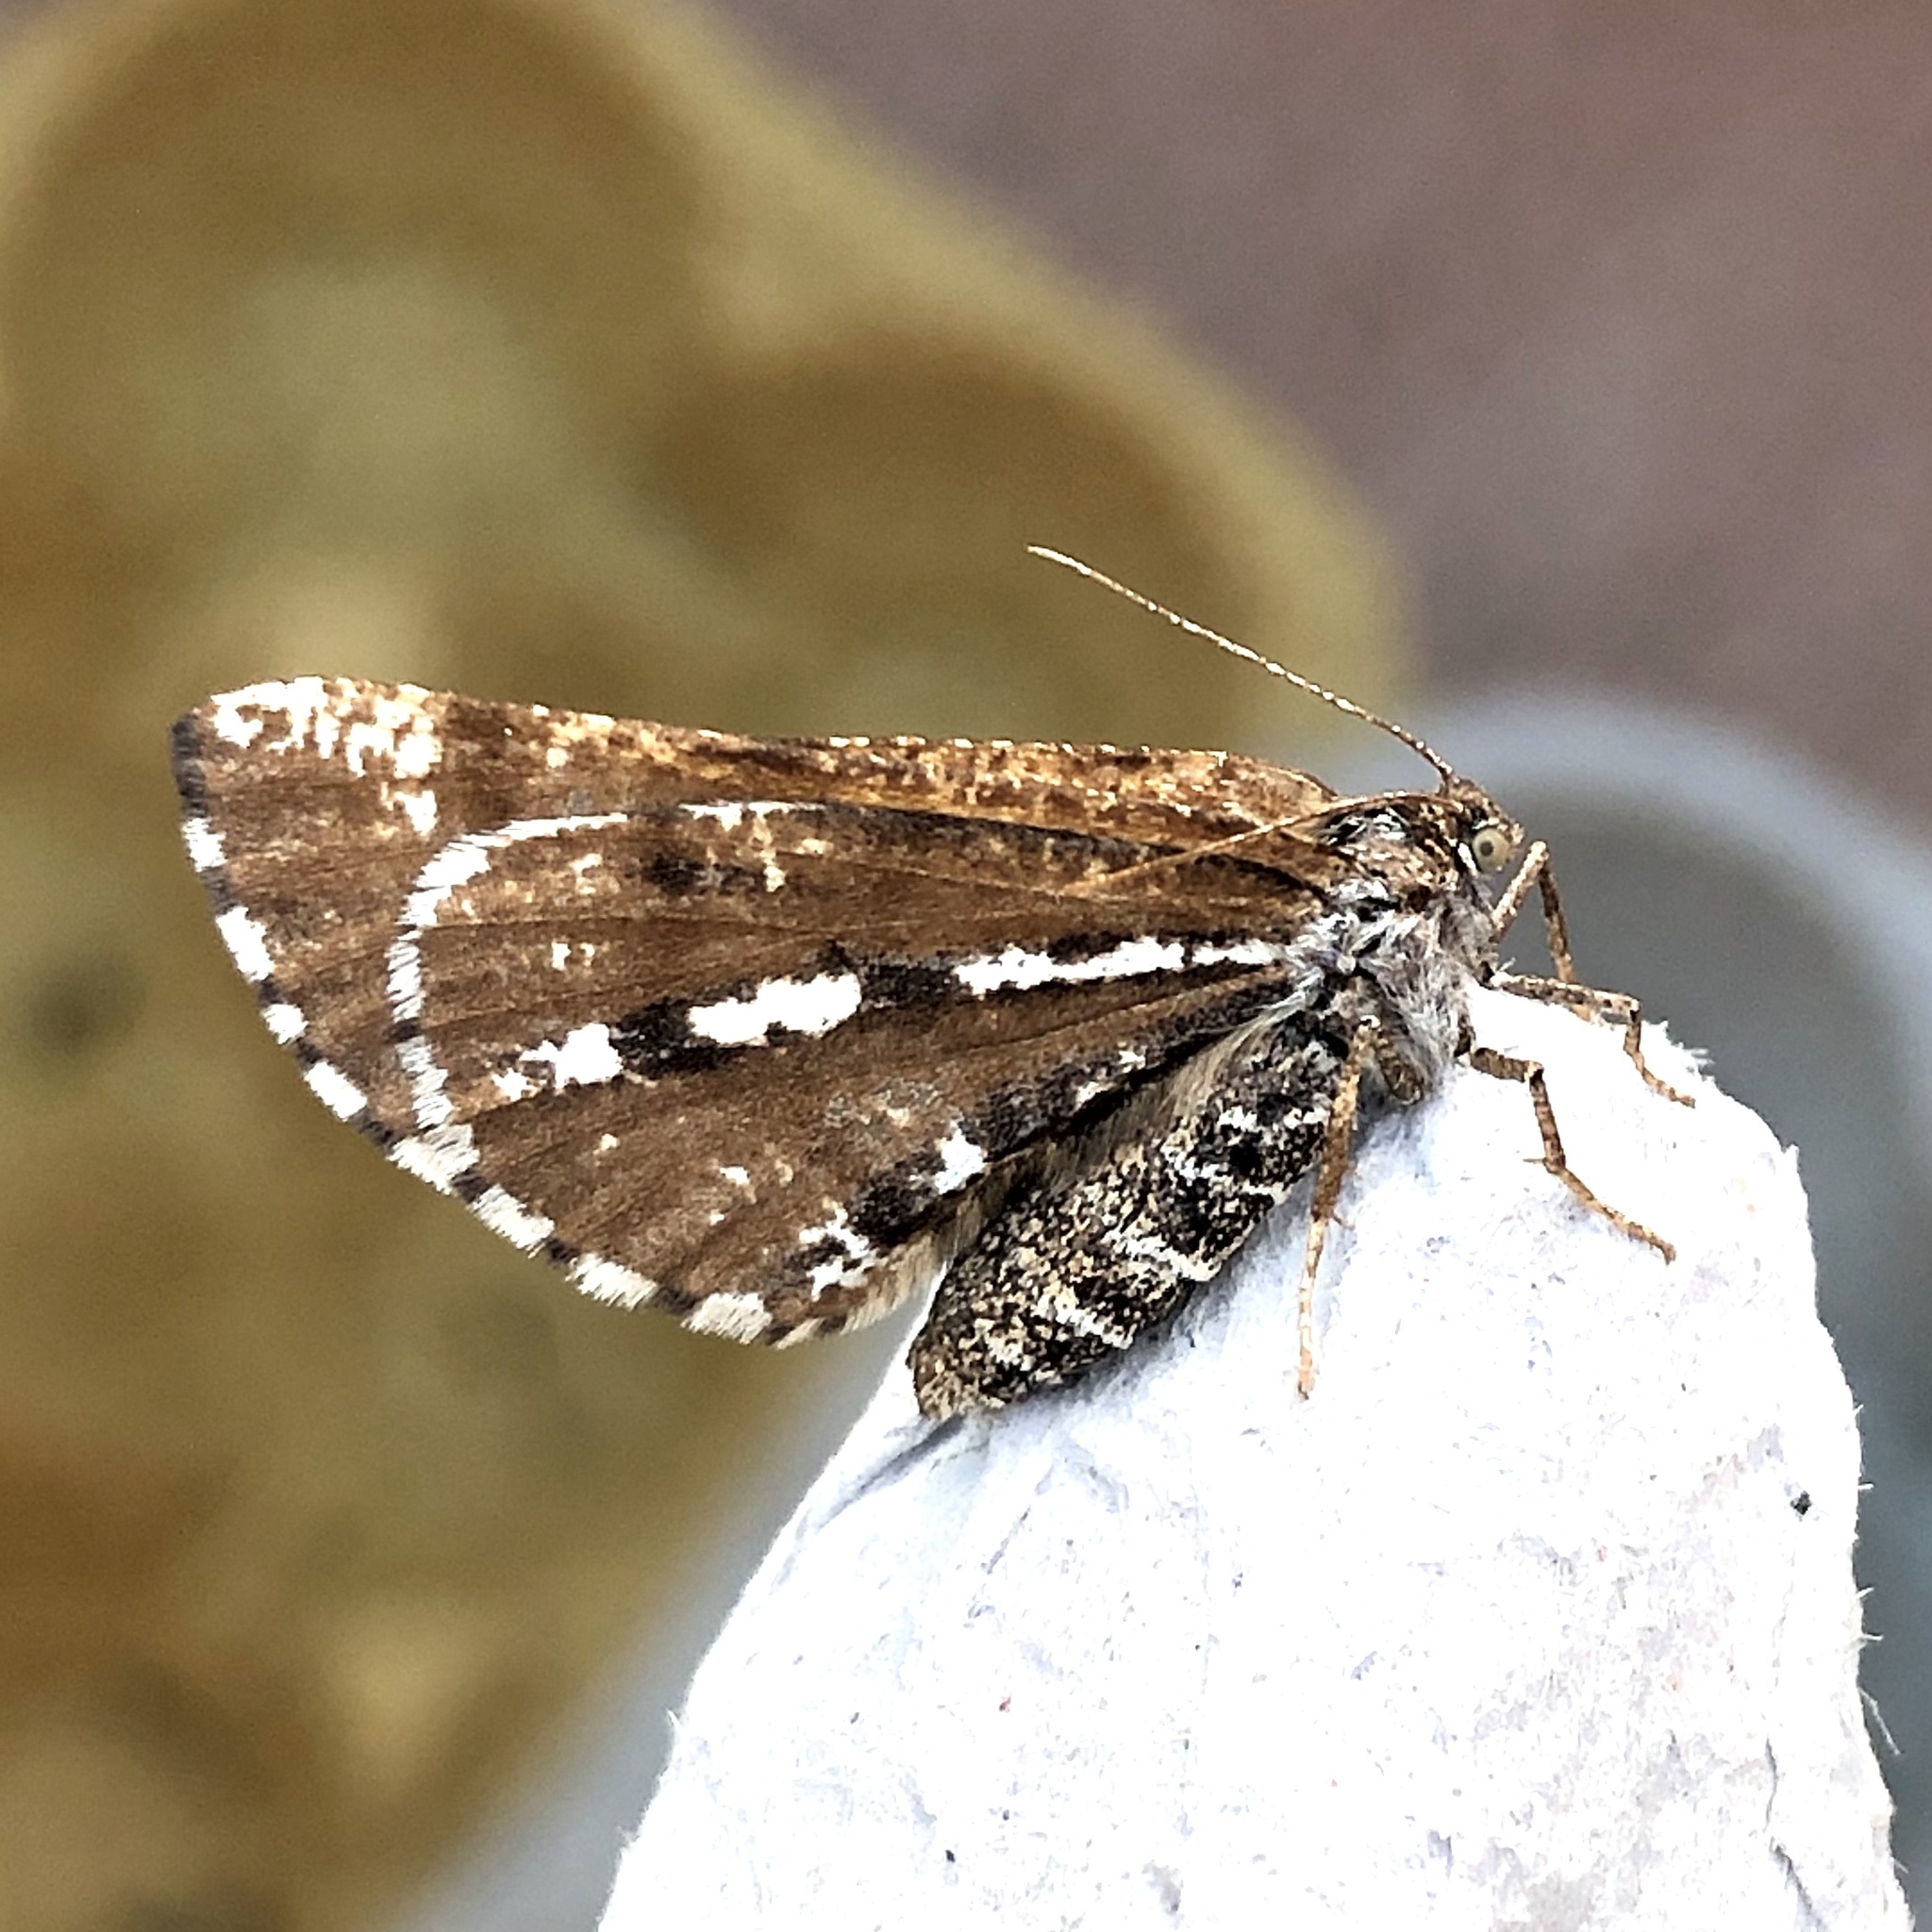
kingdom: Animalia
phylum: Arthropoda
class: Insecta
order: Lepidoptera
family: Geometridae
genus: Bupalus
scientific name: Bupalus piniaria
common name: Bordered white
